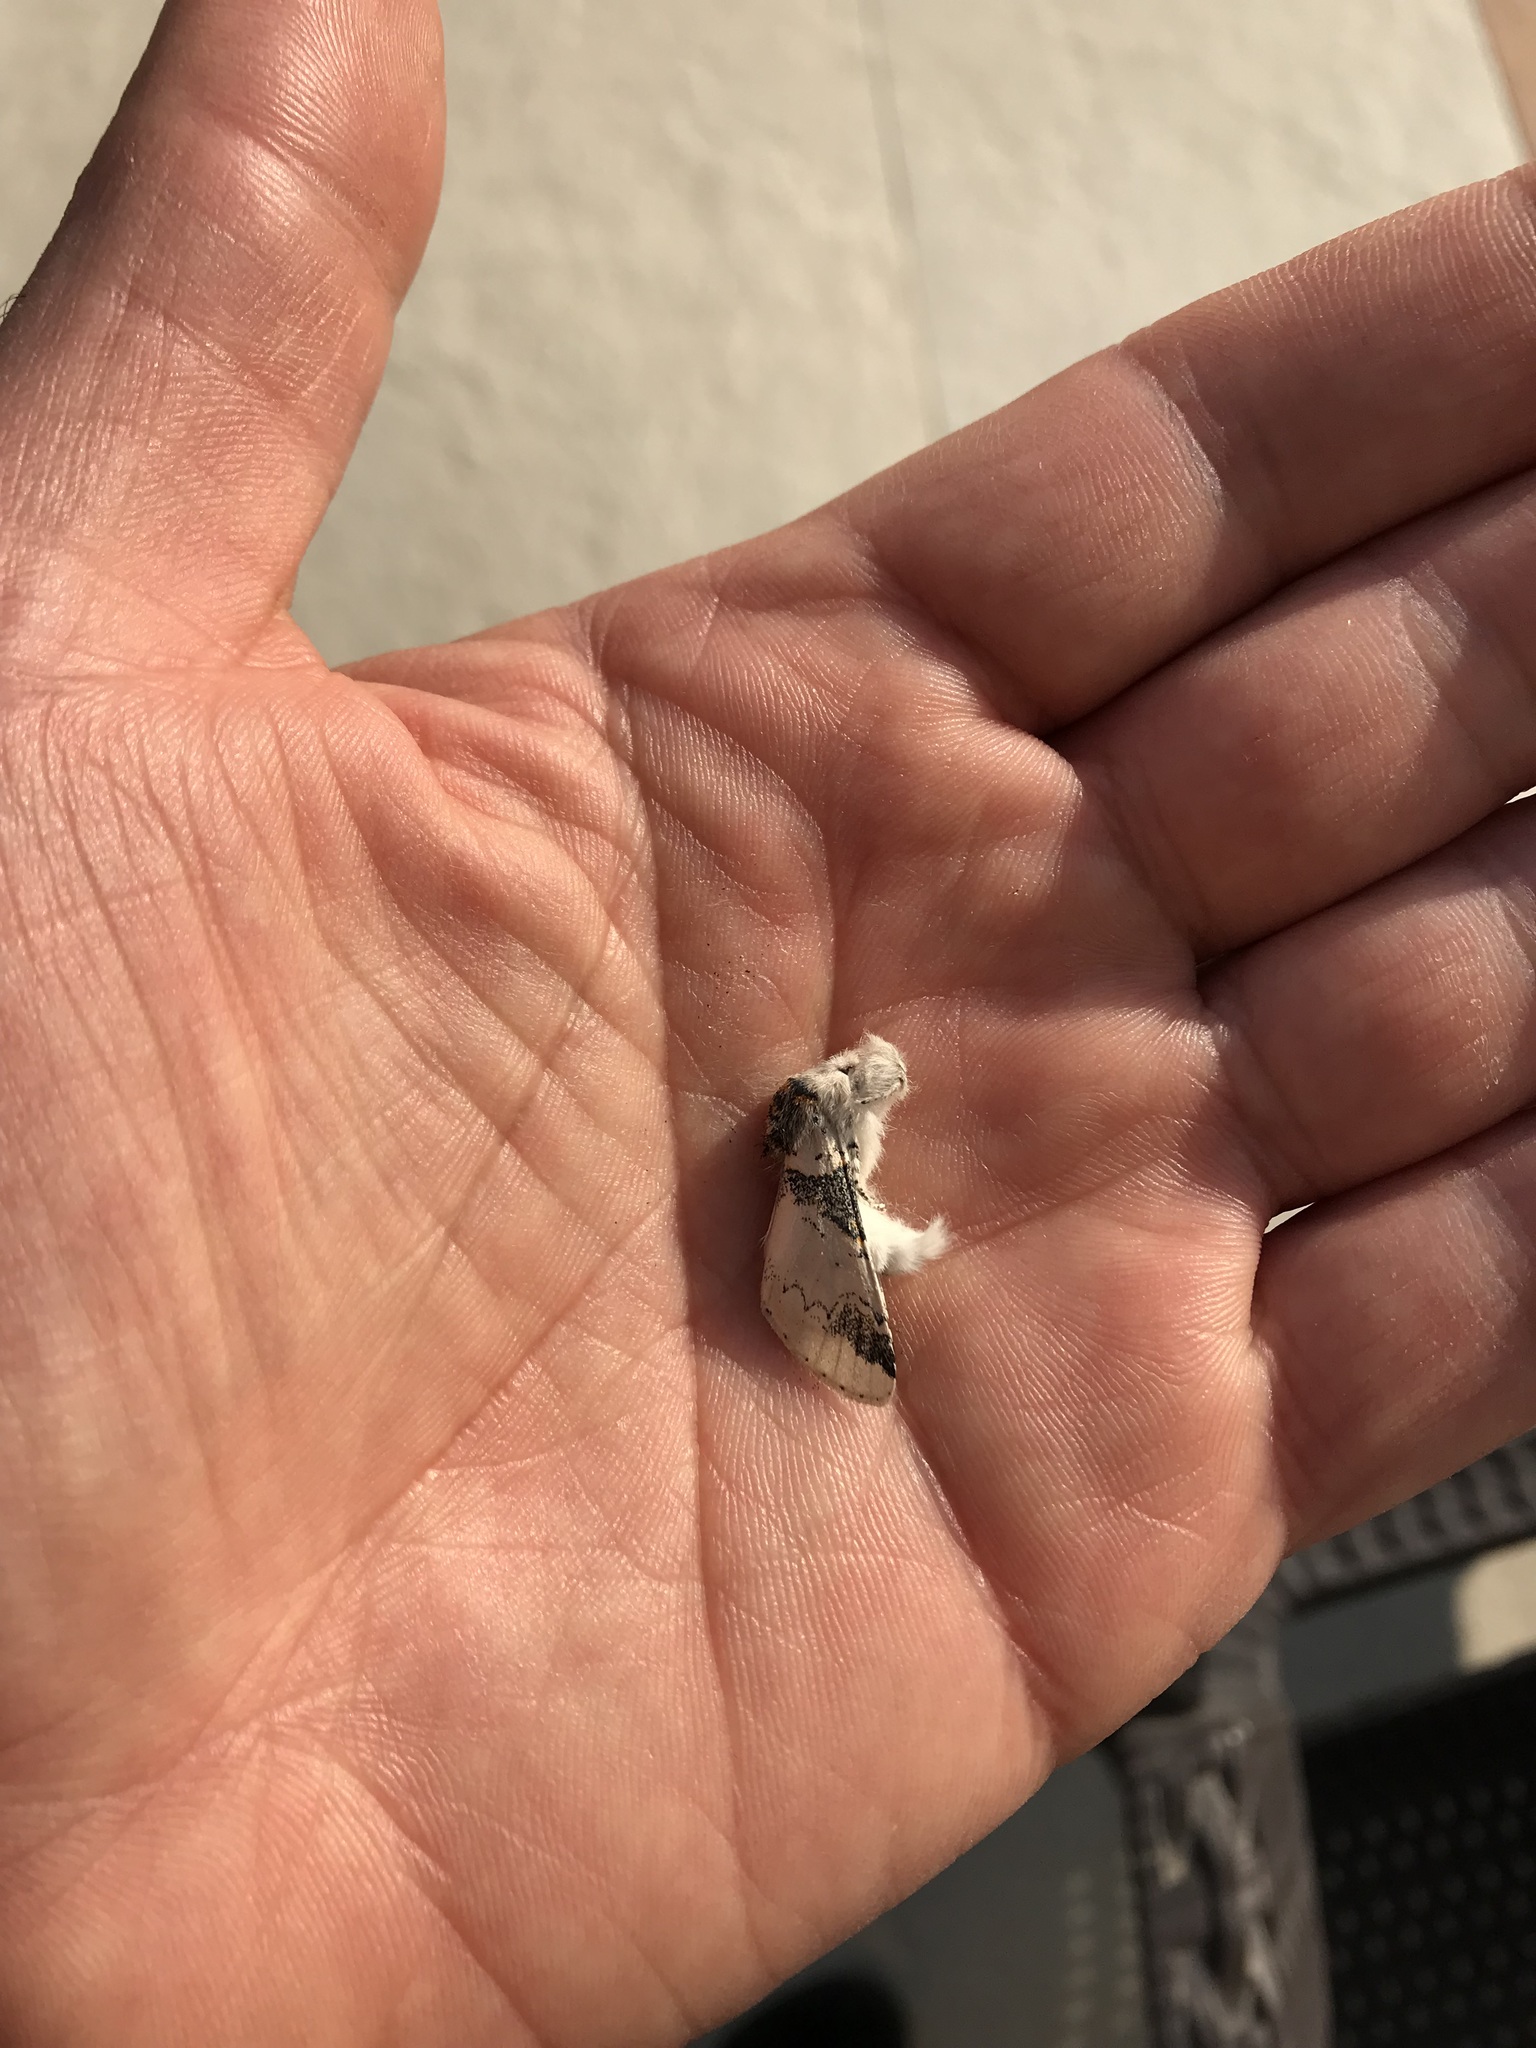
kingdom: Animalia
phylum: Arthropoda
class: Insecta
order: Lepidoptera
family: Notodontidae
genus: Furcula
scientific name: Furcula interrupta
